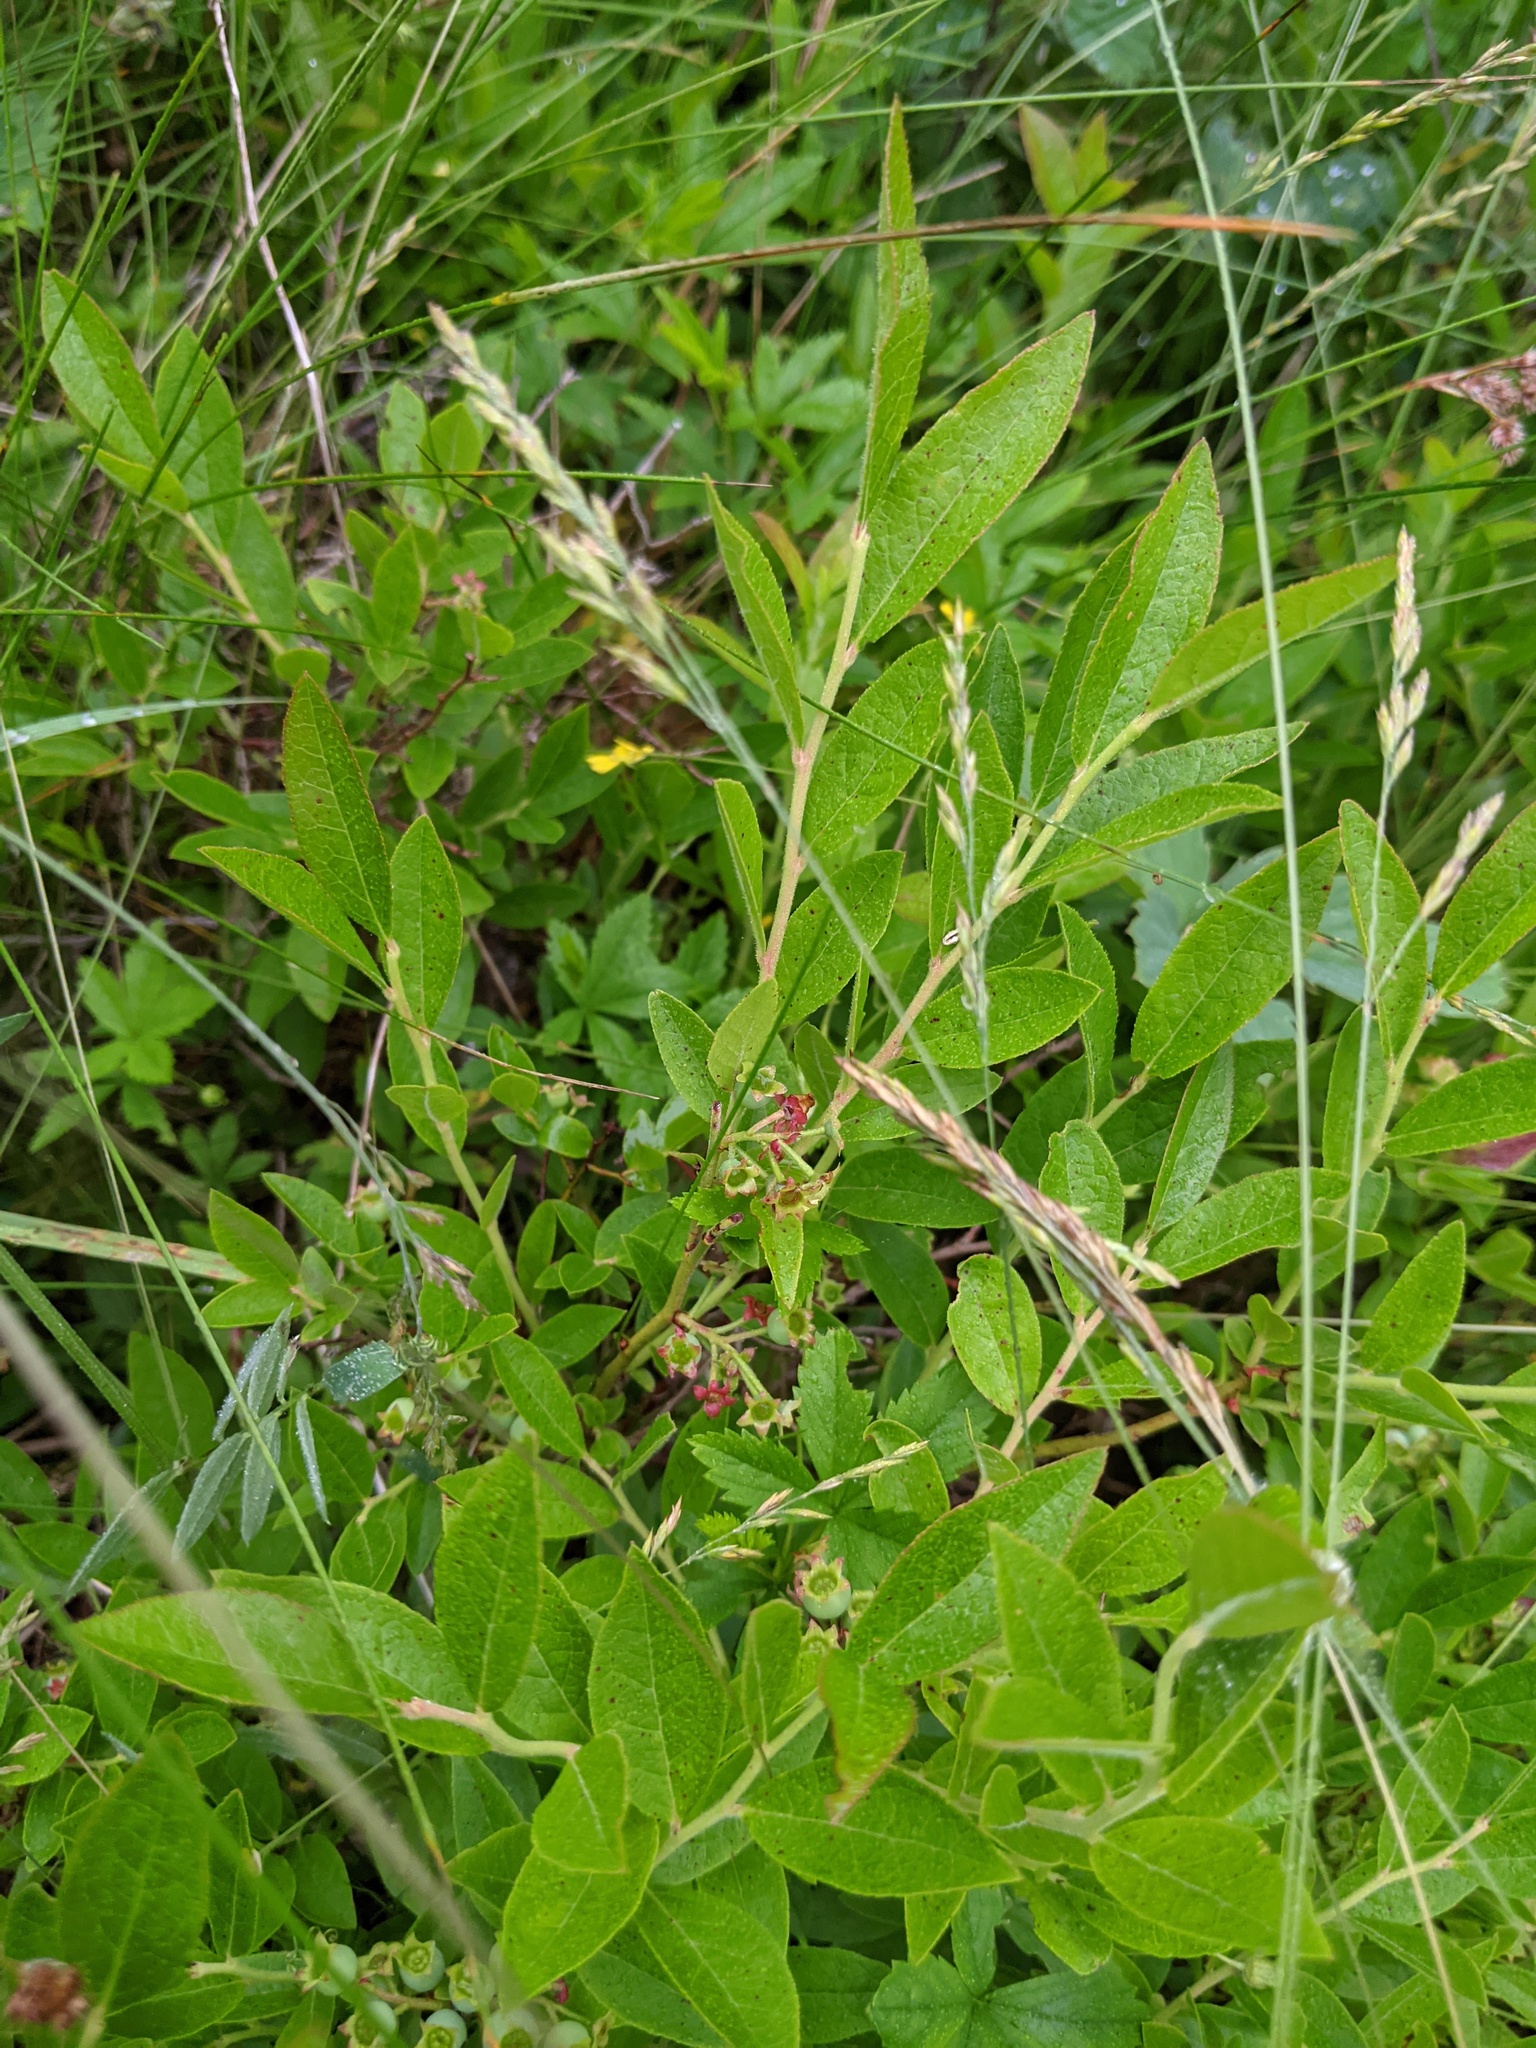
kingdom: Plantae
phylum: Tracheophyta
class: Magnoliopsida
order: Ericales
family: Ericaceae
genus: Vaccinium
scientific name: Vaccinium angustifolium
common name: Early lowbush blueberry
